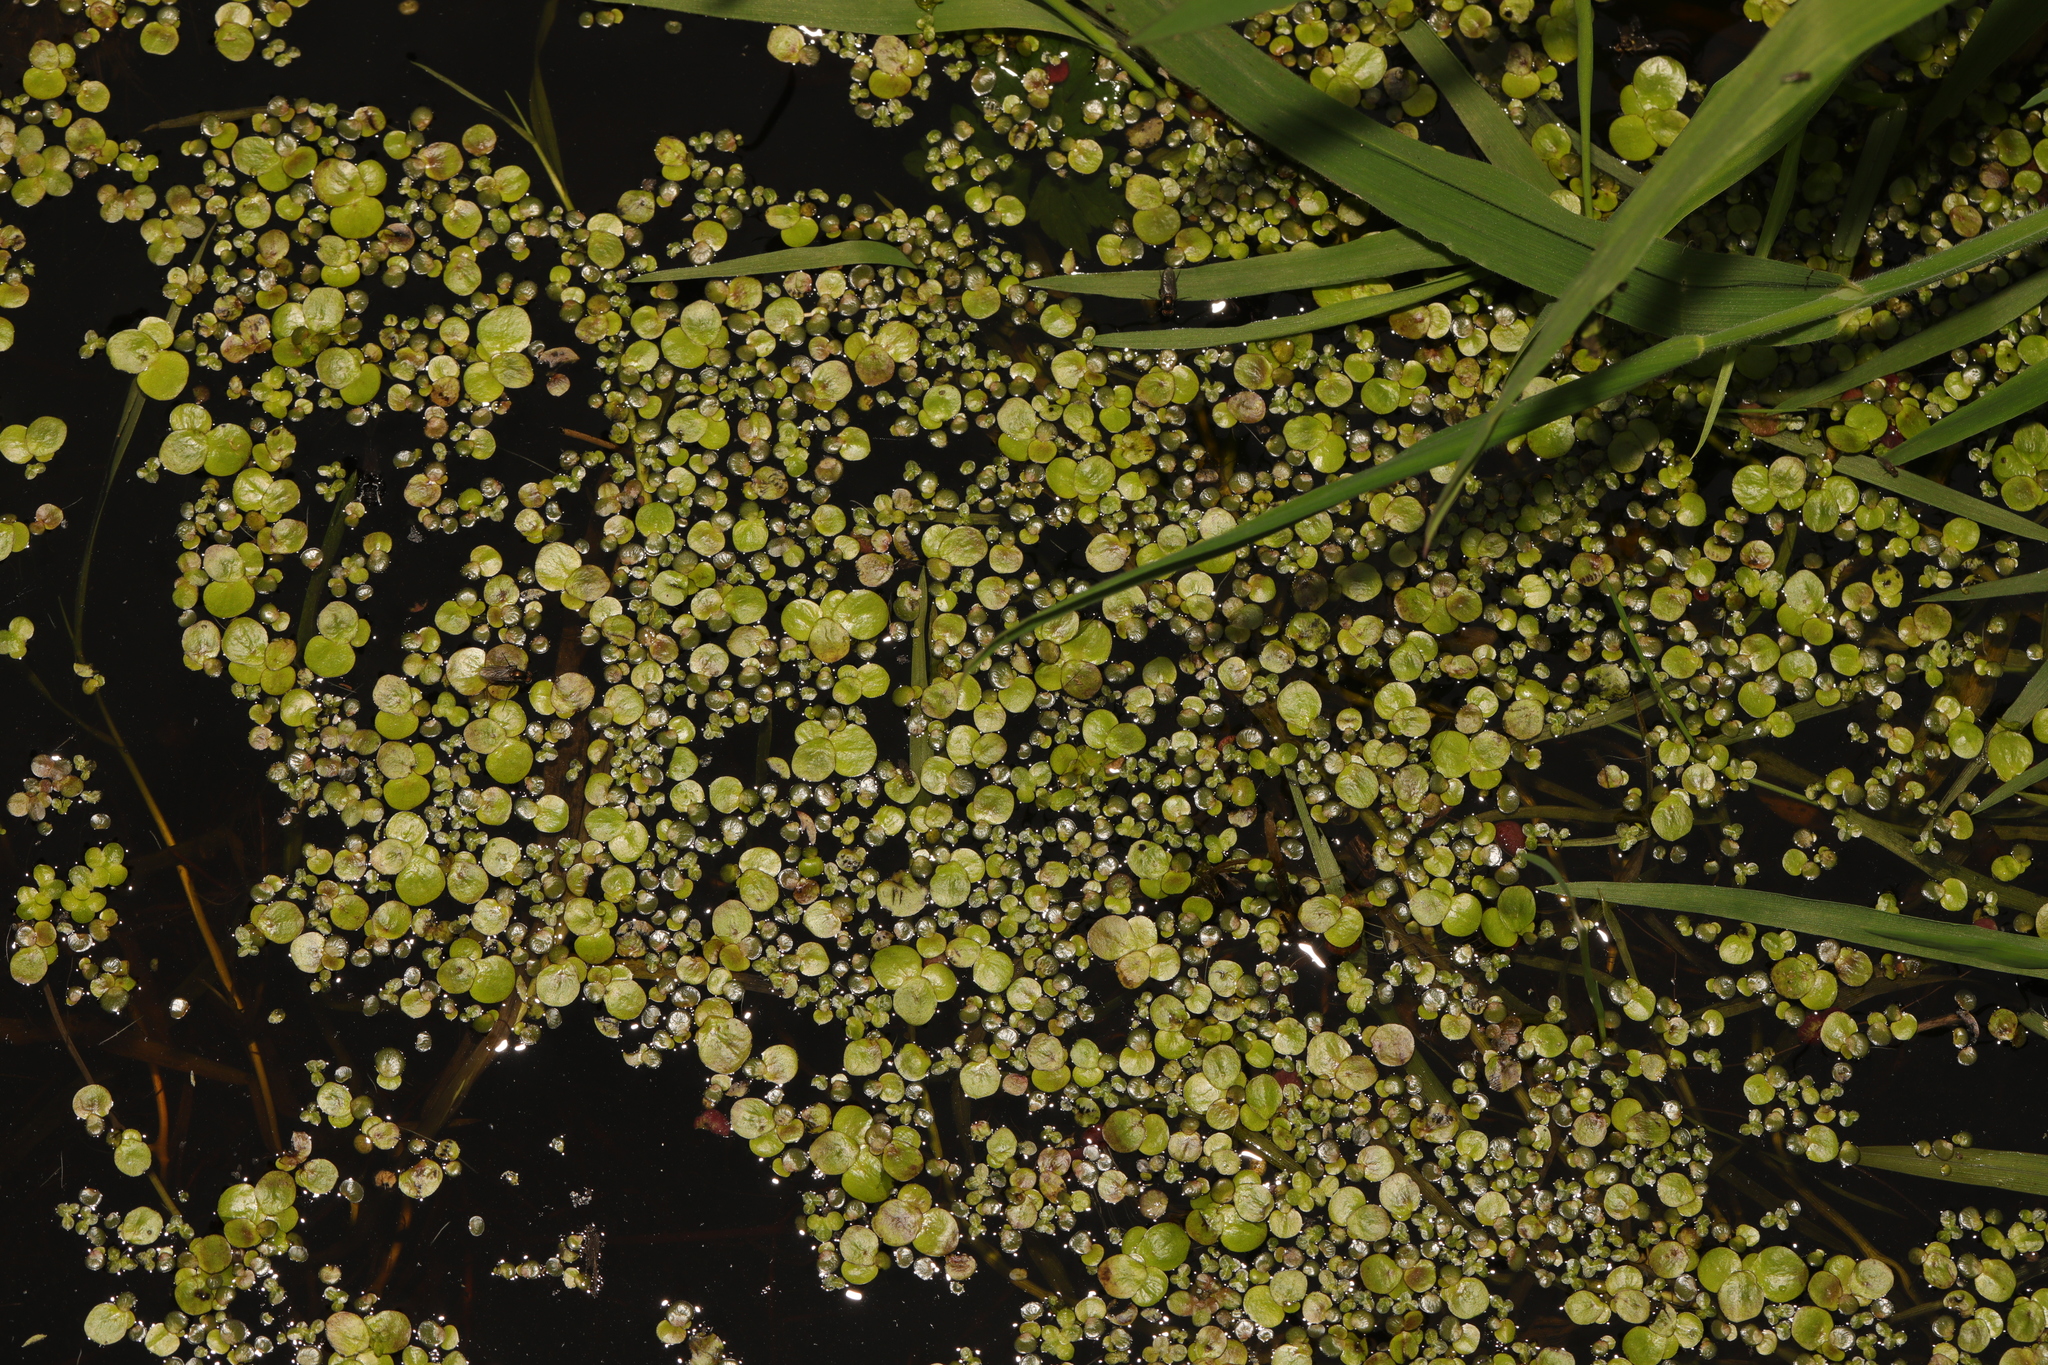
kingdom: Plantae
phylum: Tracheophyta
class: Liliopsida
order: Alismatales
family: Araceae
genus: Spirodela
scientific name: Spirodela polyrhiza
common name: Great duckweed
